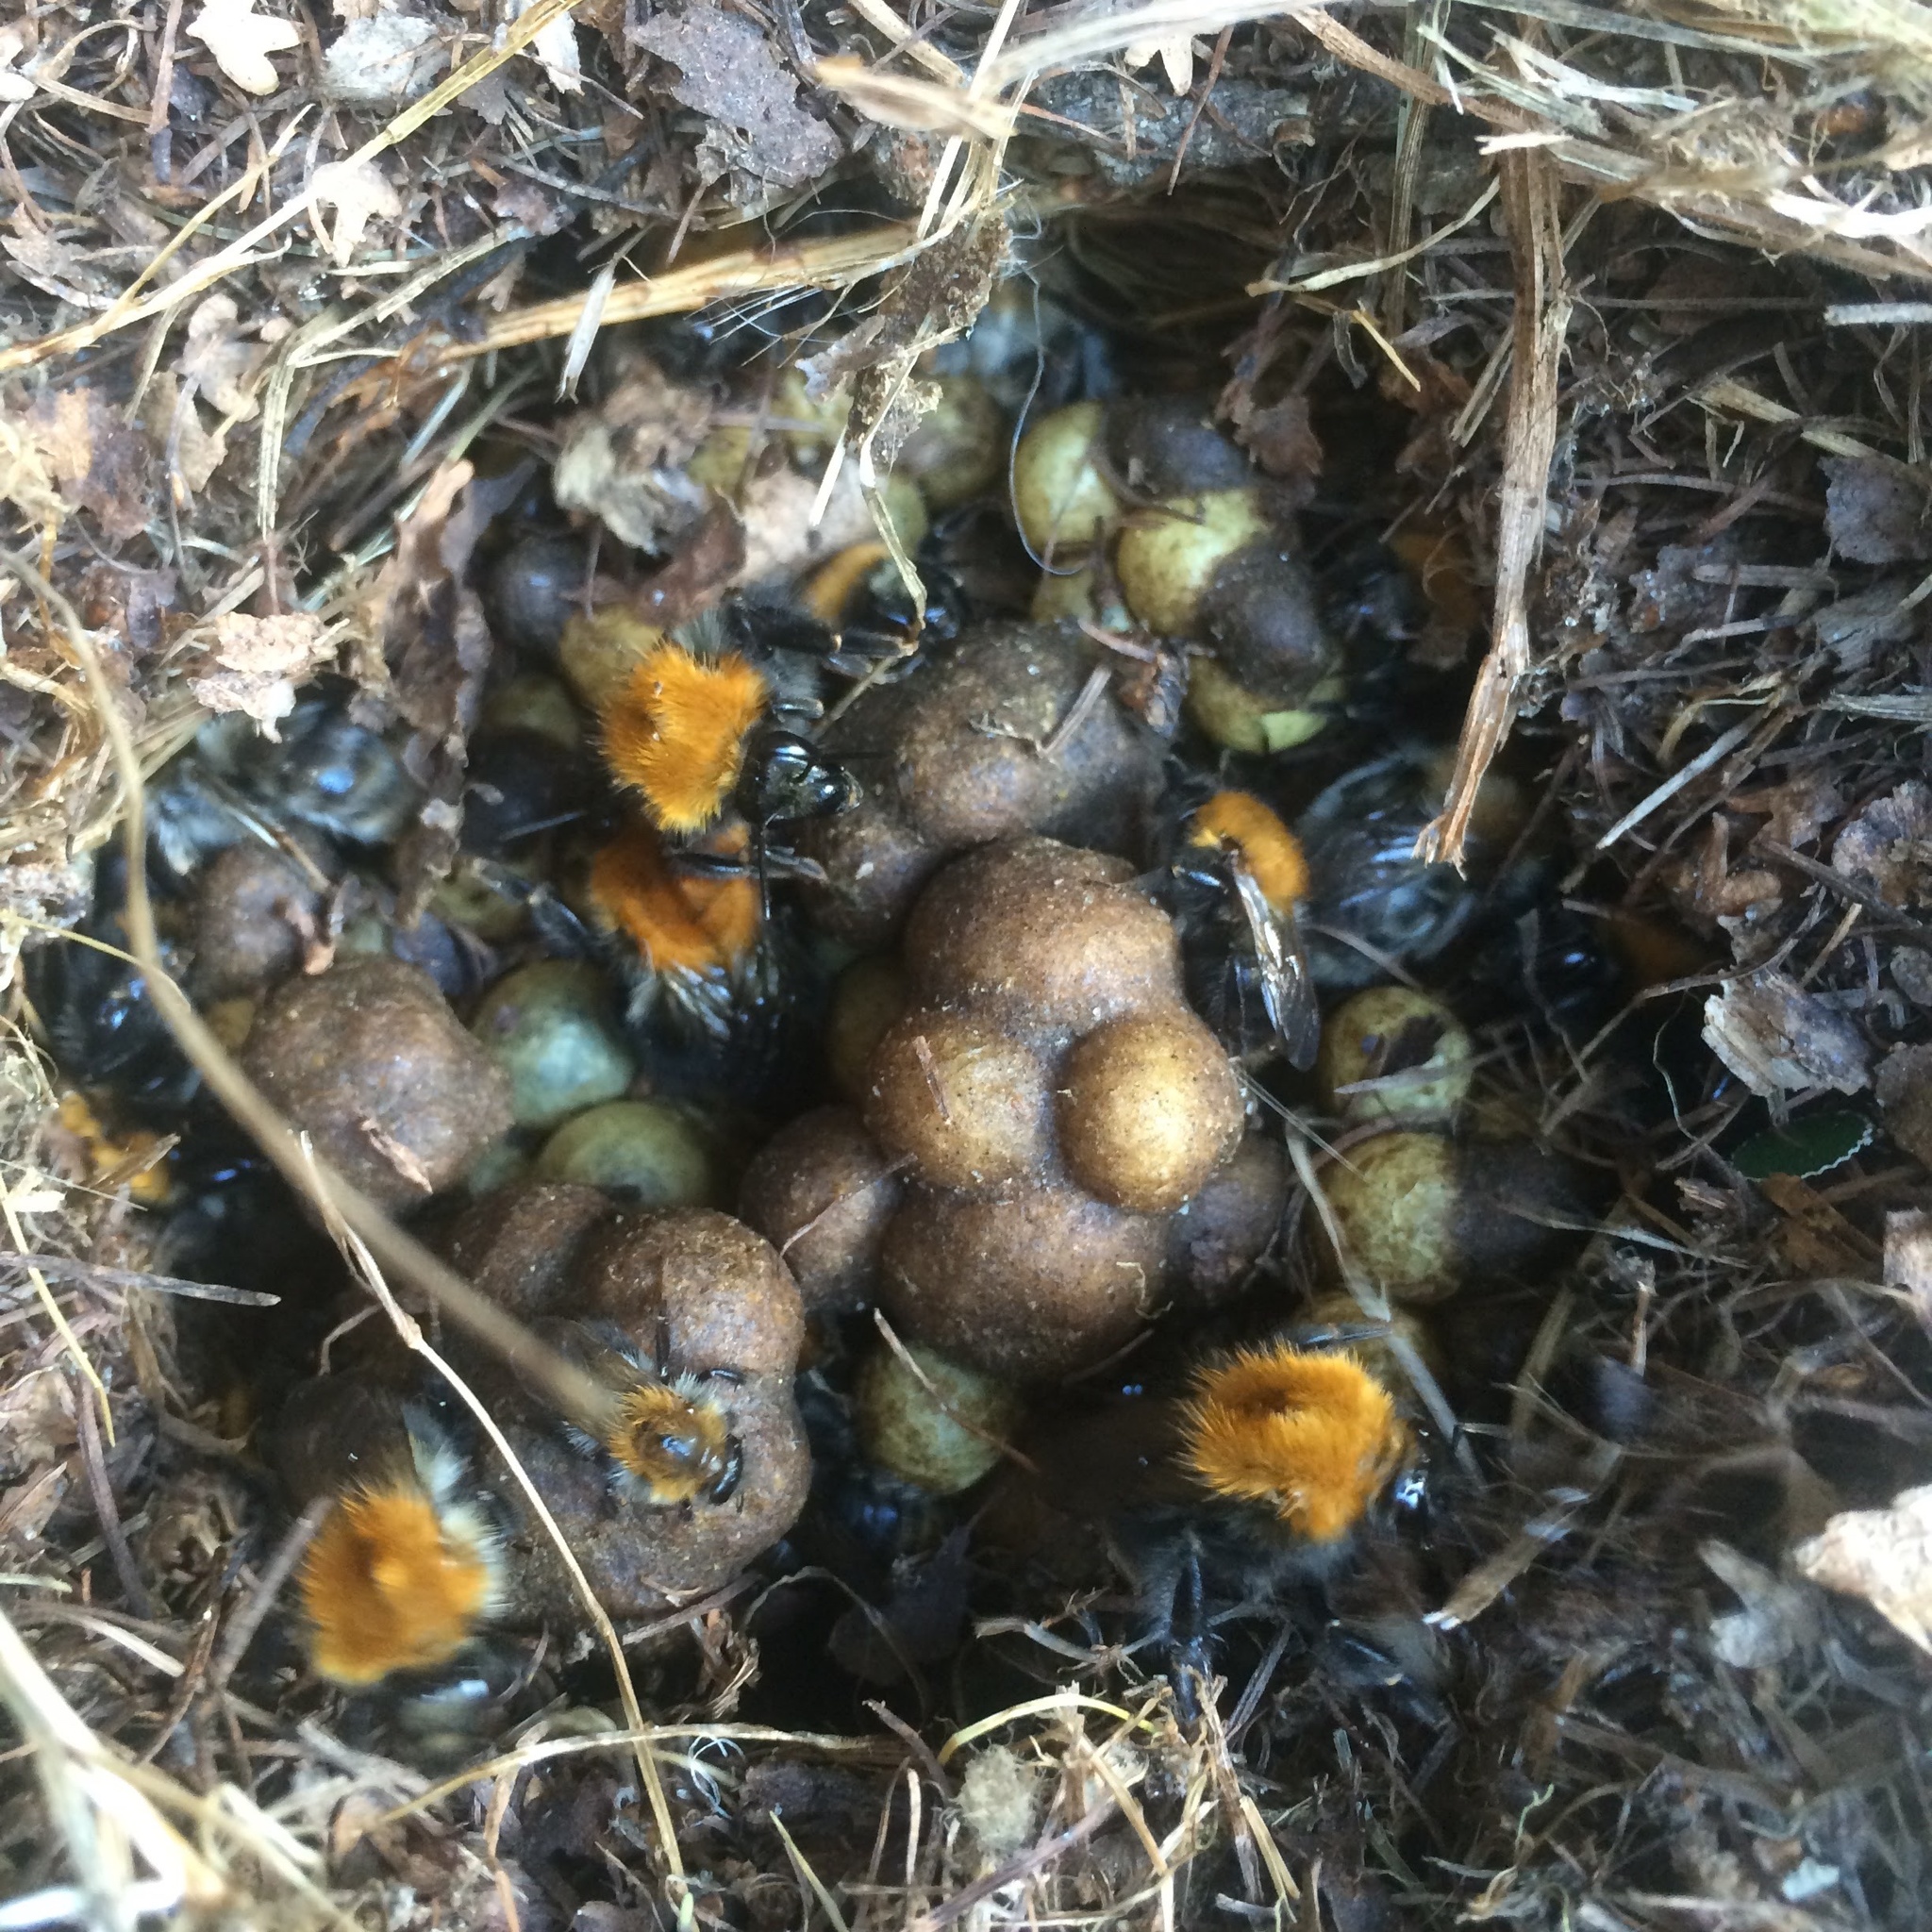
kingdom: Animalia
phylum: Arthropoda
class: Insecta
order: Hymenoptera
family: Apidae
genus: Bombus
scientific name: Bombus pascuorum
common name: Common carder bee
